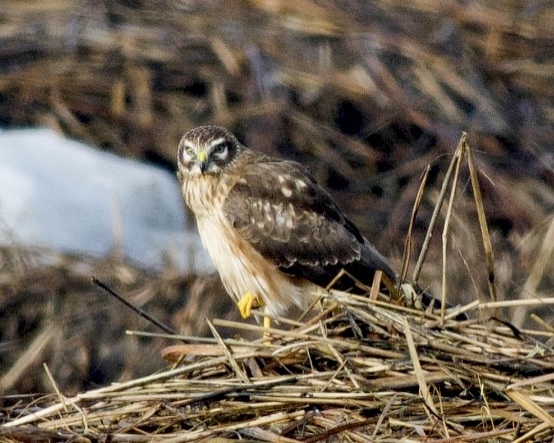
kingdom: Animalia
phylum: Chordata
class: Aves
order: Accipitriformes
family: Accipitridae
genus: Circus
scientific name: Circus cyaneus
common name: Hen harrier
